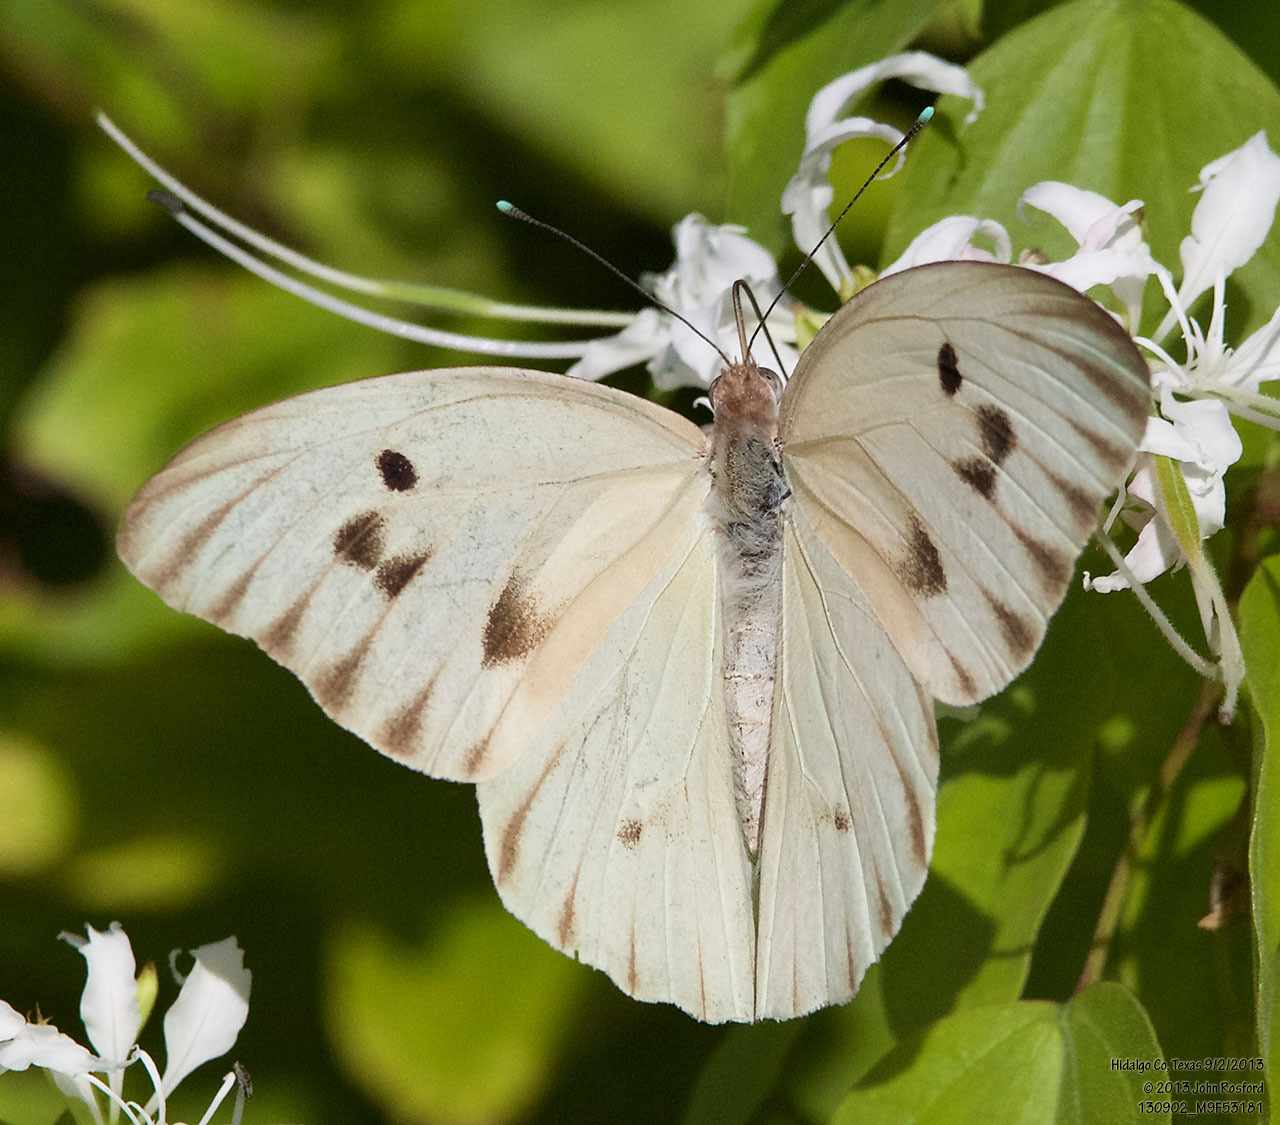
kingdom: Animalia
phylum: Arthropoda
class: Insecta
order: Lepidoptera
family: Pieridae
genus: Ganyra
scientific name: Ganyra josephina
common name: Giant white
